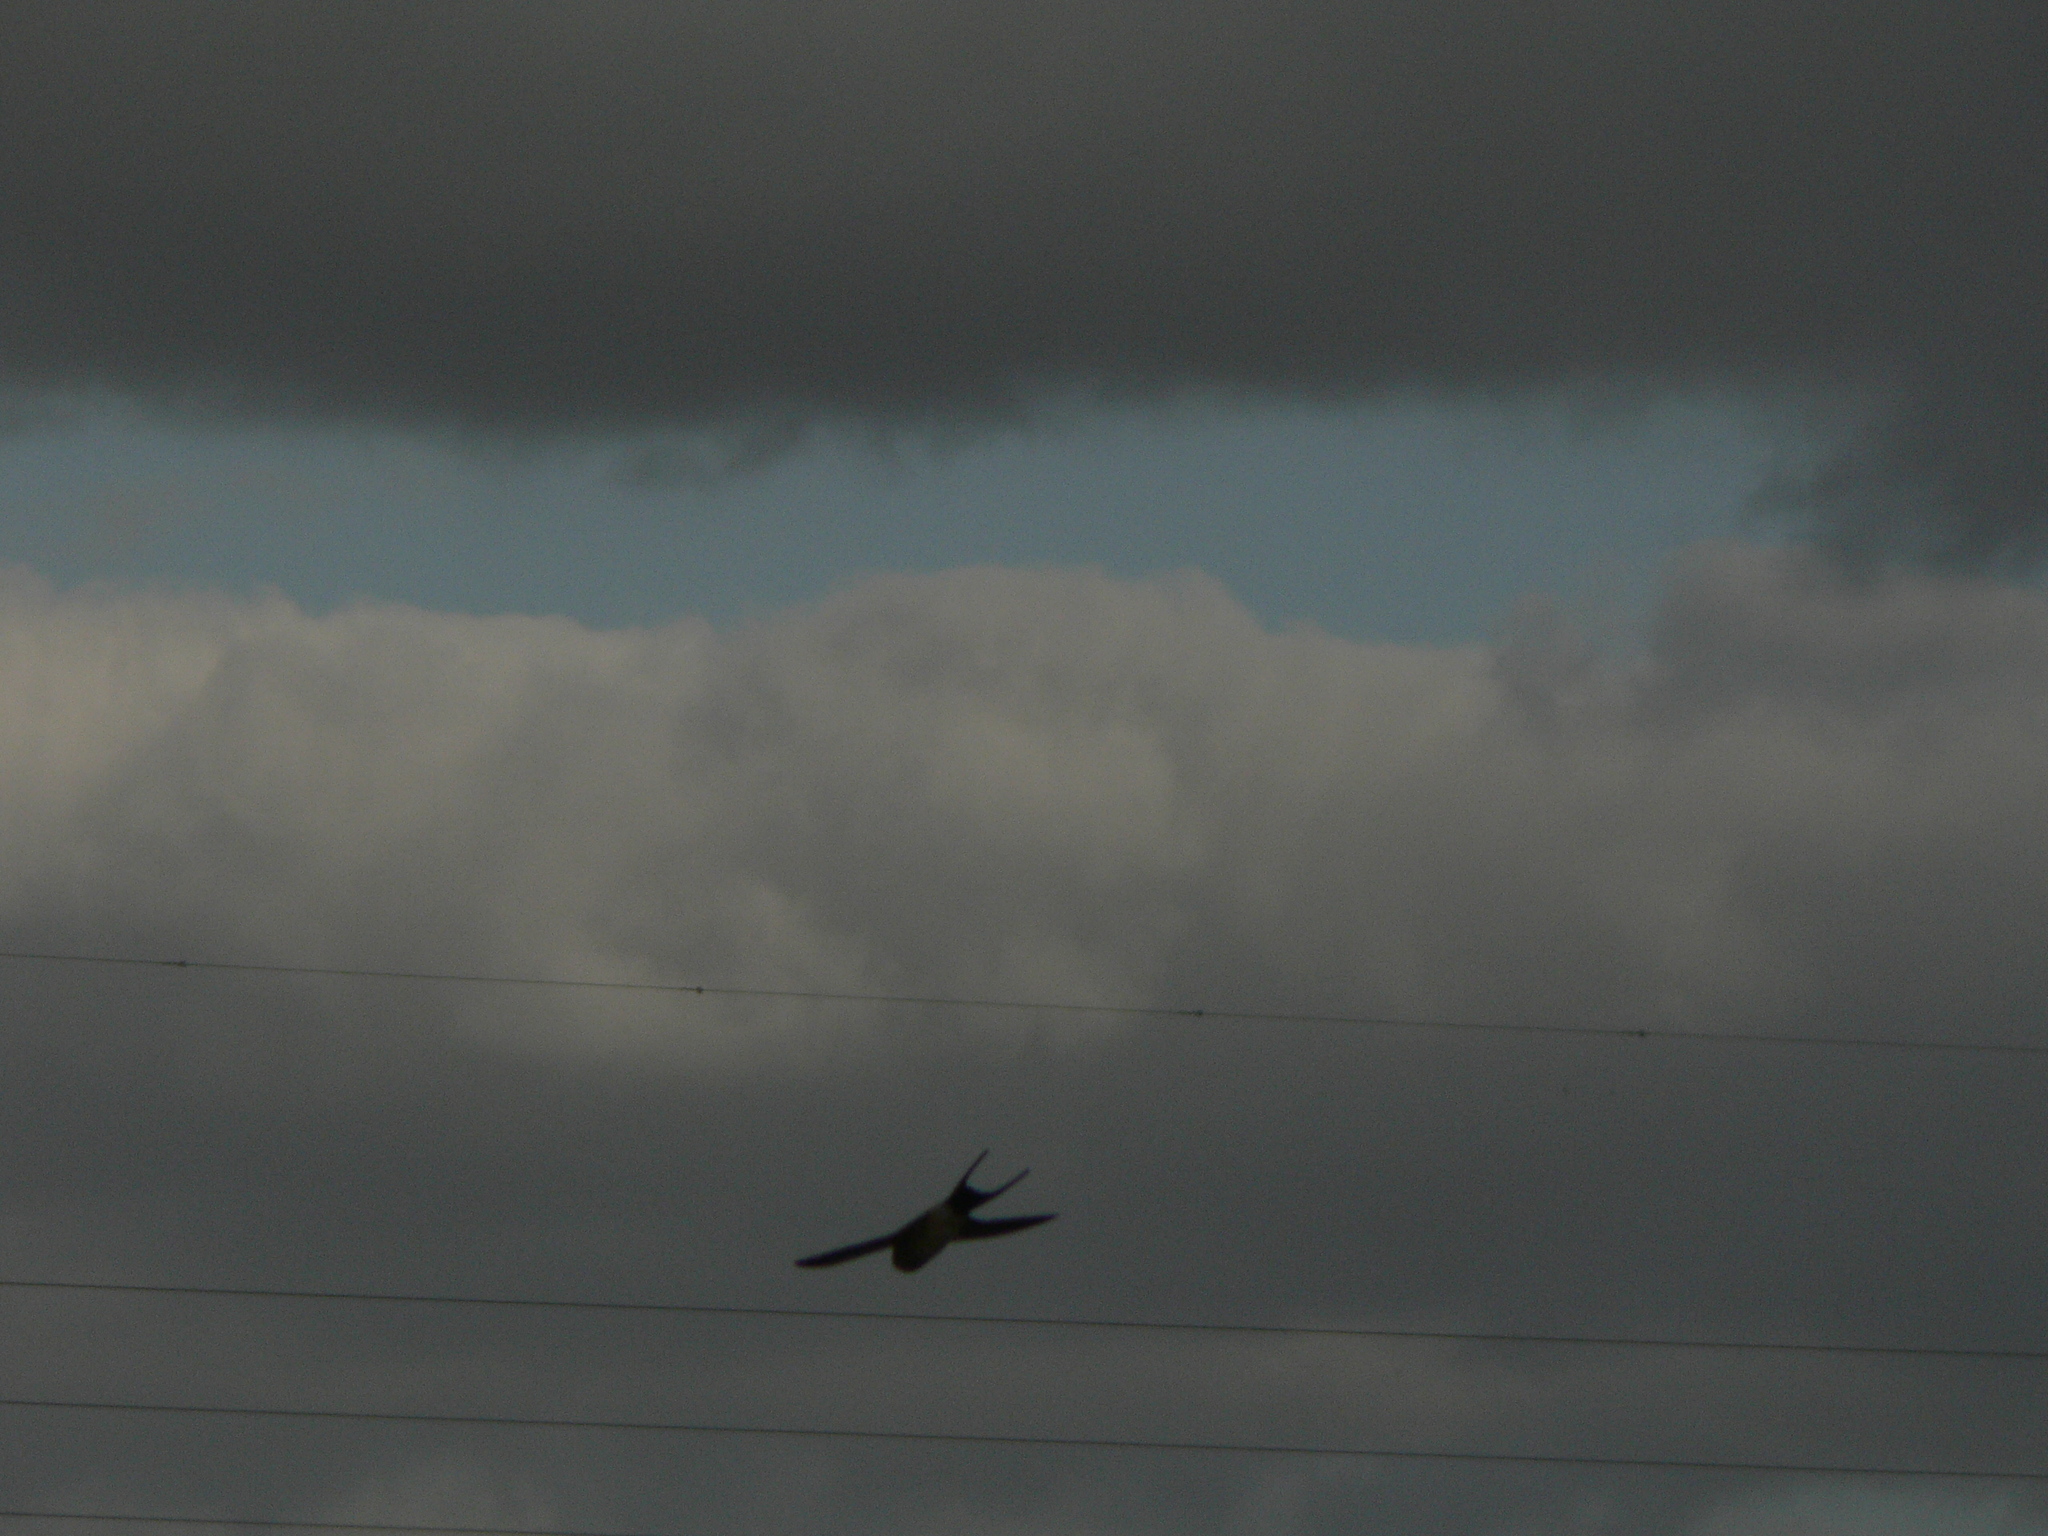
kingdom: Animalia
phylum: Chordata
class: Aves
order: Passeriformes
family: Hirundinidae
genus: Cecropis
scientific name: Cecropis daurica
